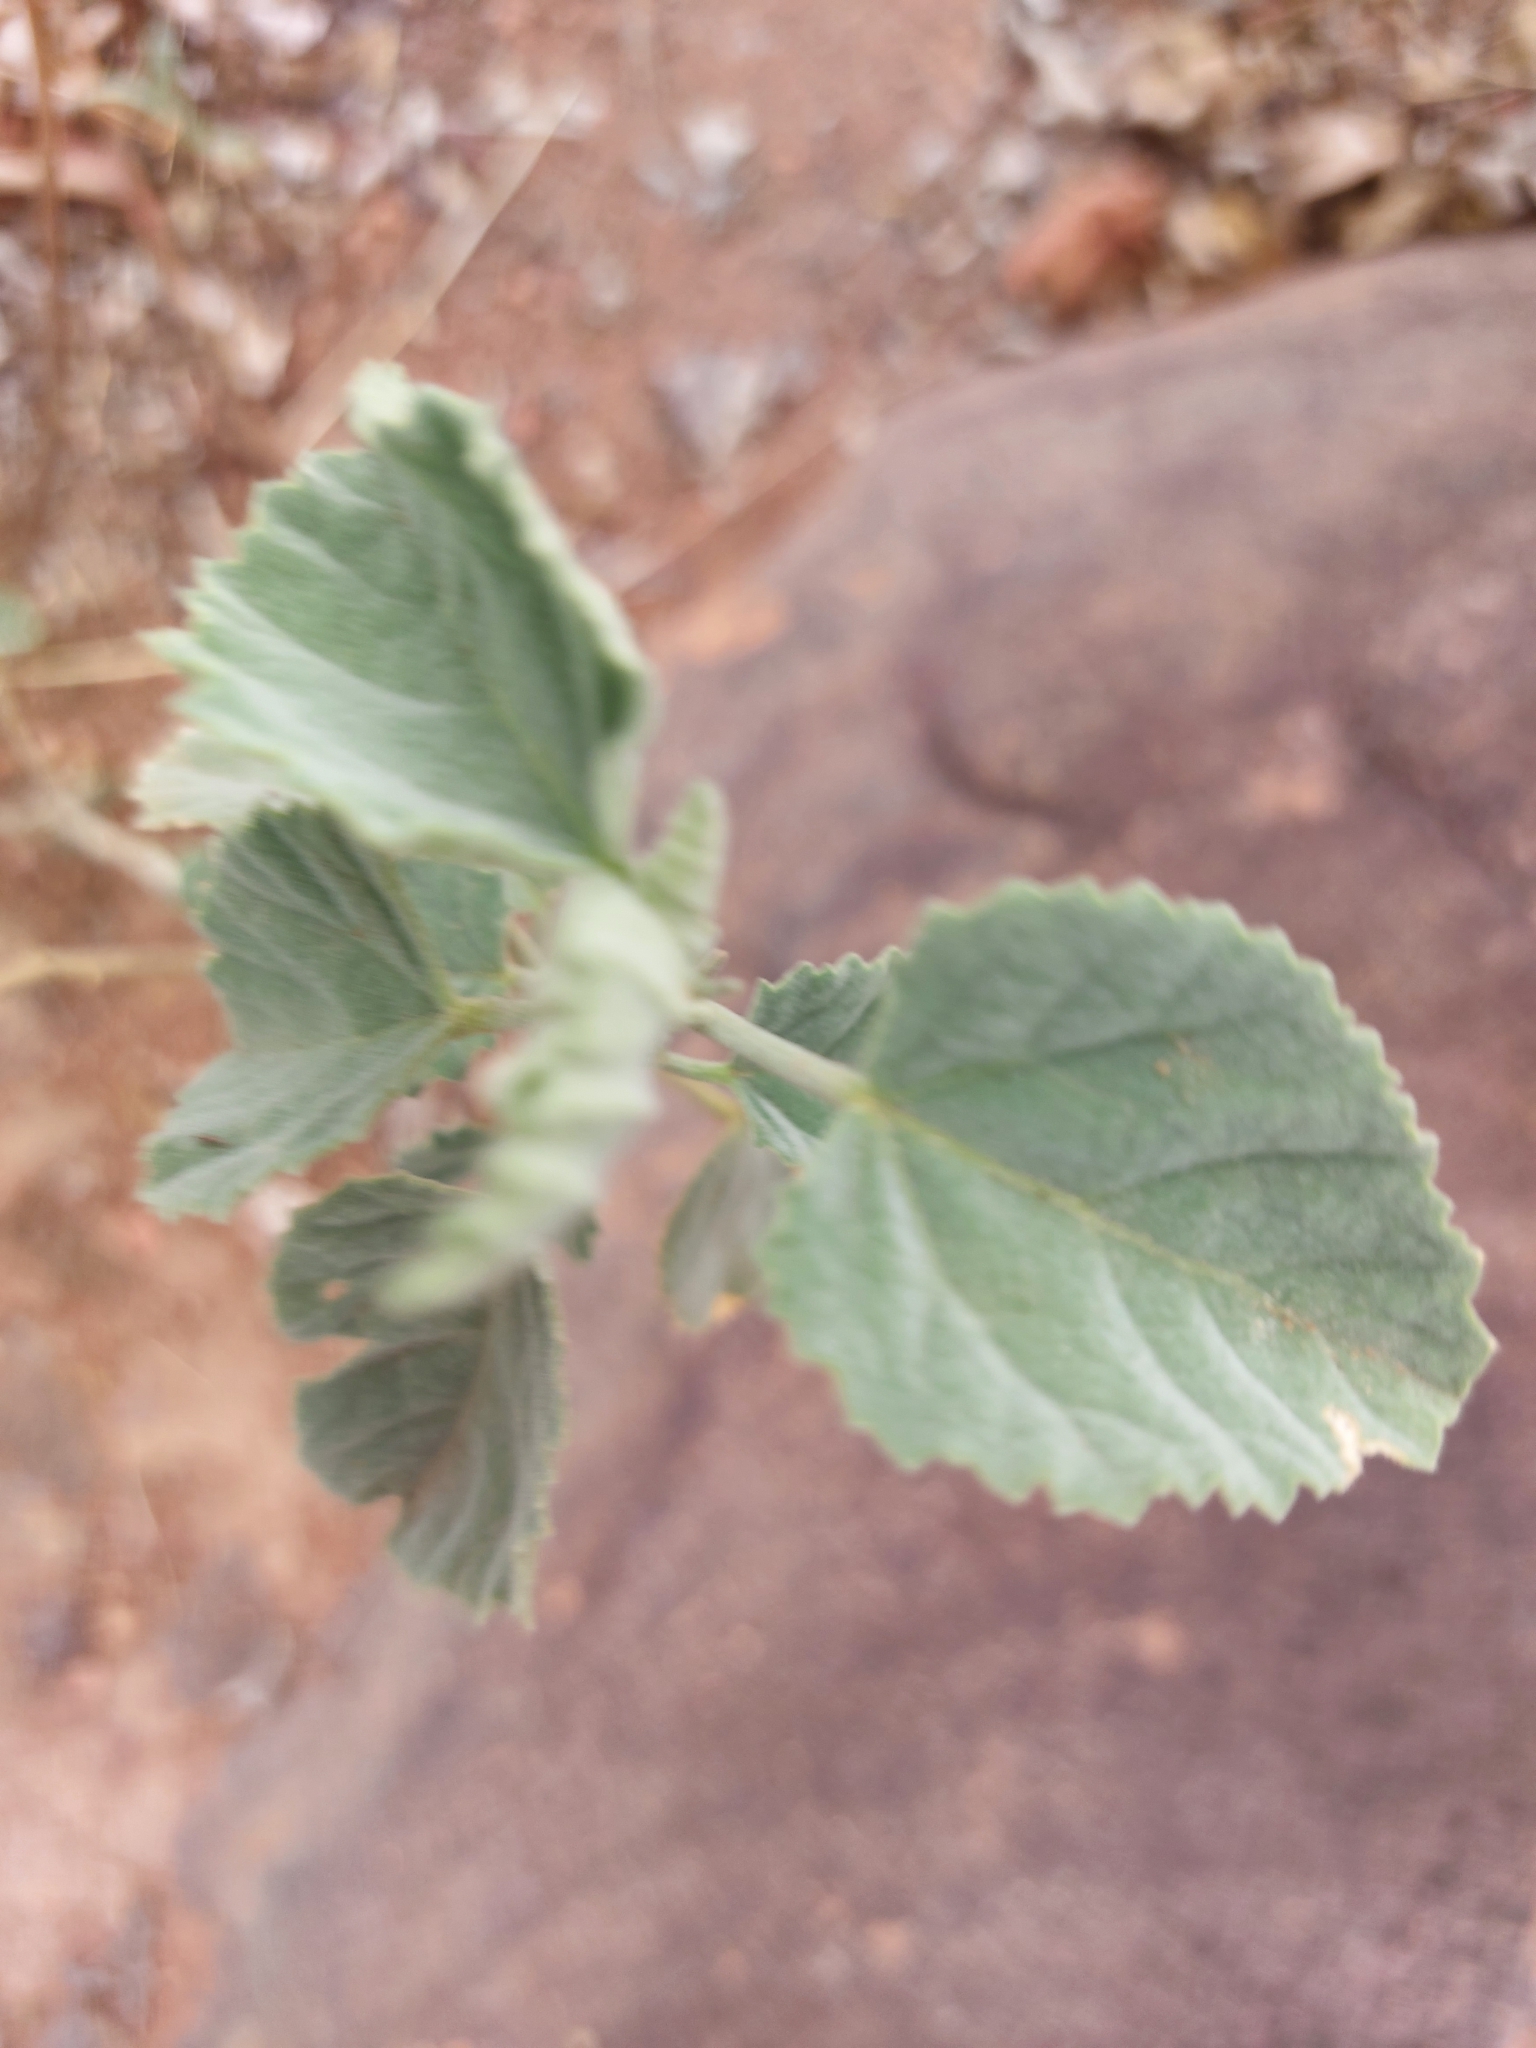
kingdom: Plantae
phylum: Tracheophyta
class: Magnoliopsida
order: Malvales
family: Malvaceae
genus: Hibiscus
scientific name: Hibiscus waterbergensis
